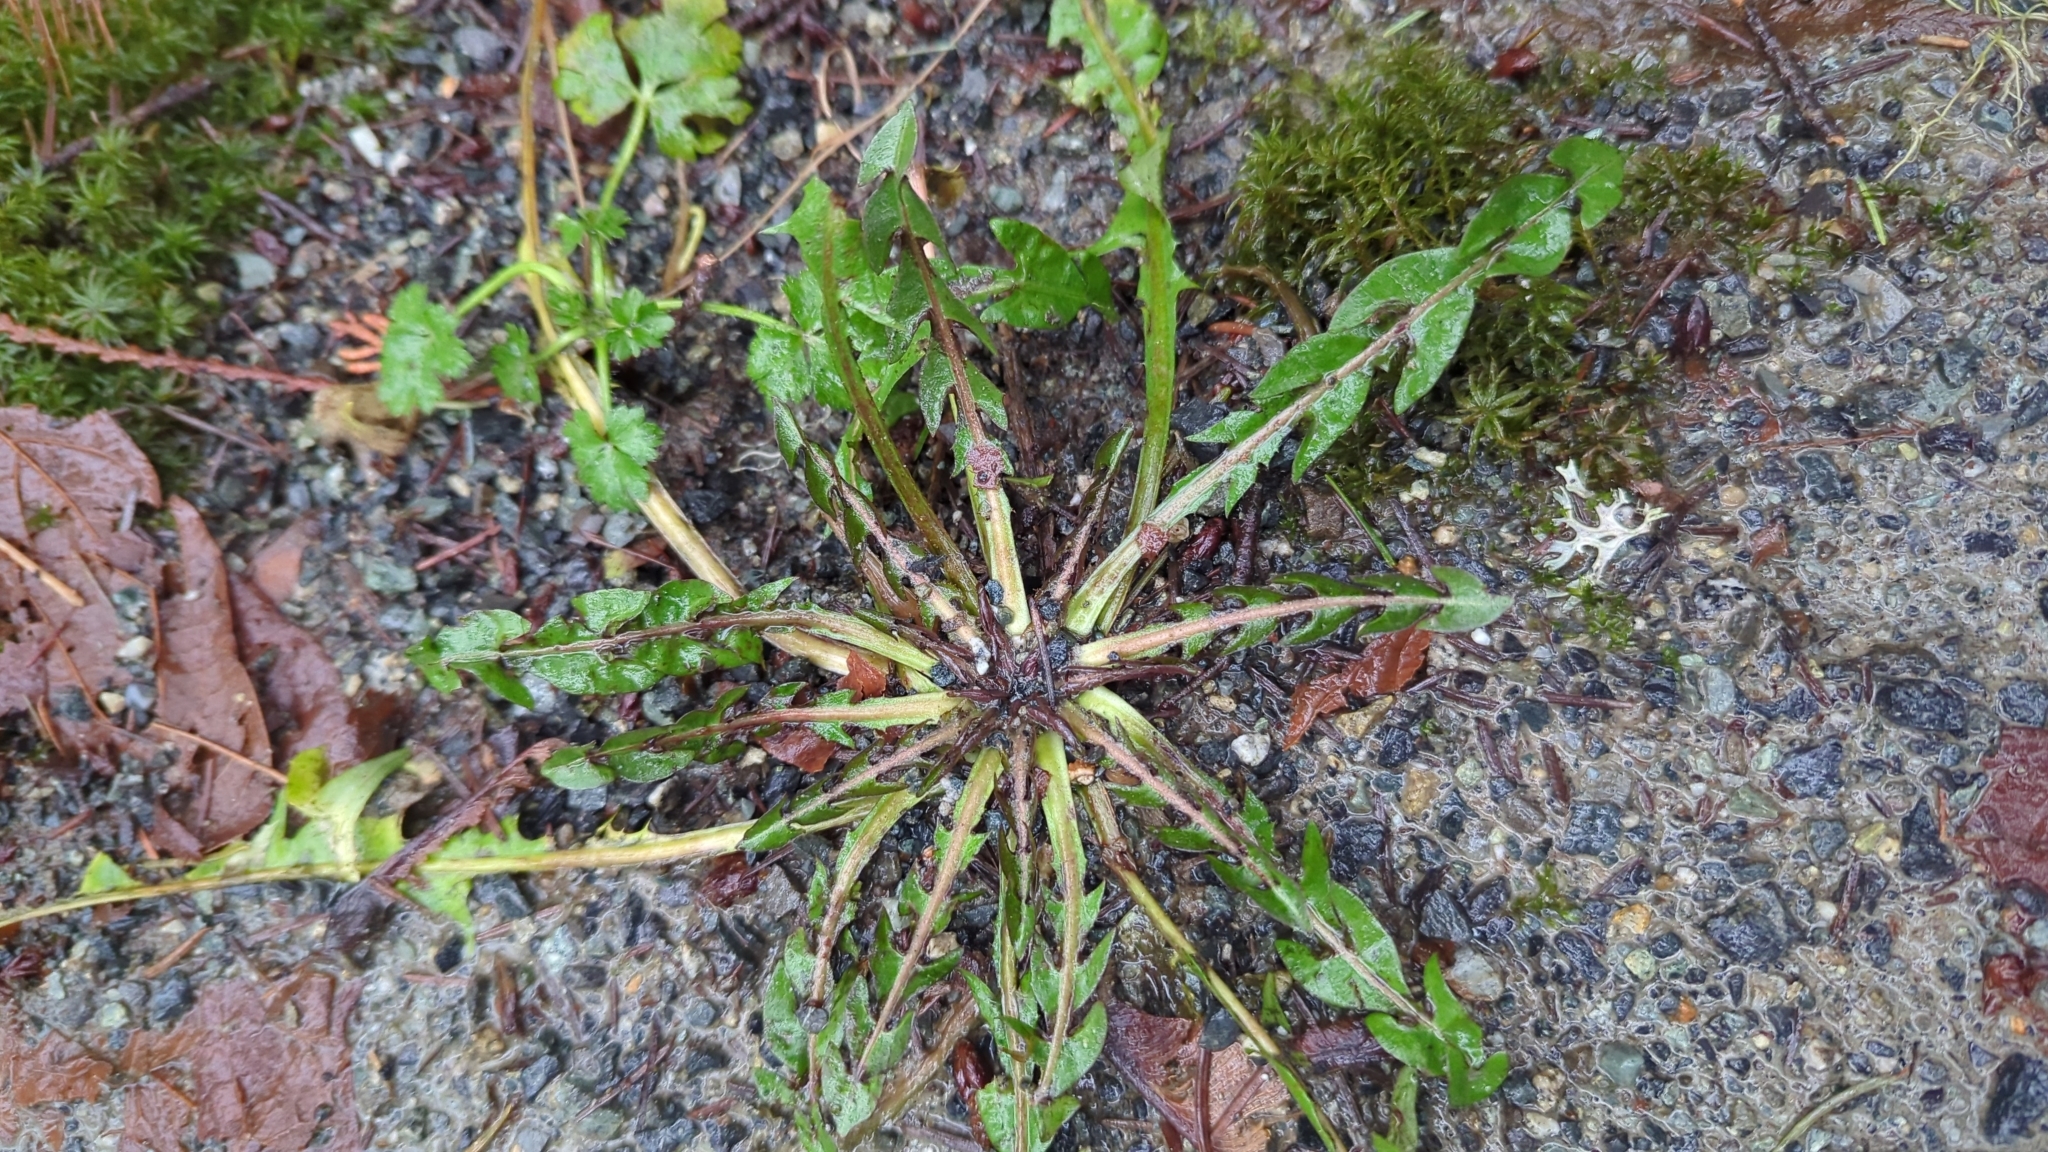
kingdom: Plantae
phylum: Tracheophyta
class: Magnoliopsida
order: Asterales
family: Asteraceae
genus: Taraxacum
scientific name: Taraxacum officinale
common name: Common dandelion
